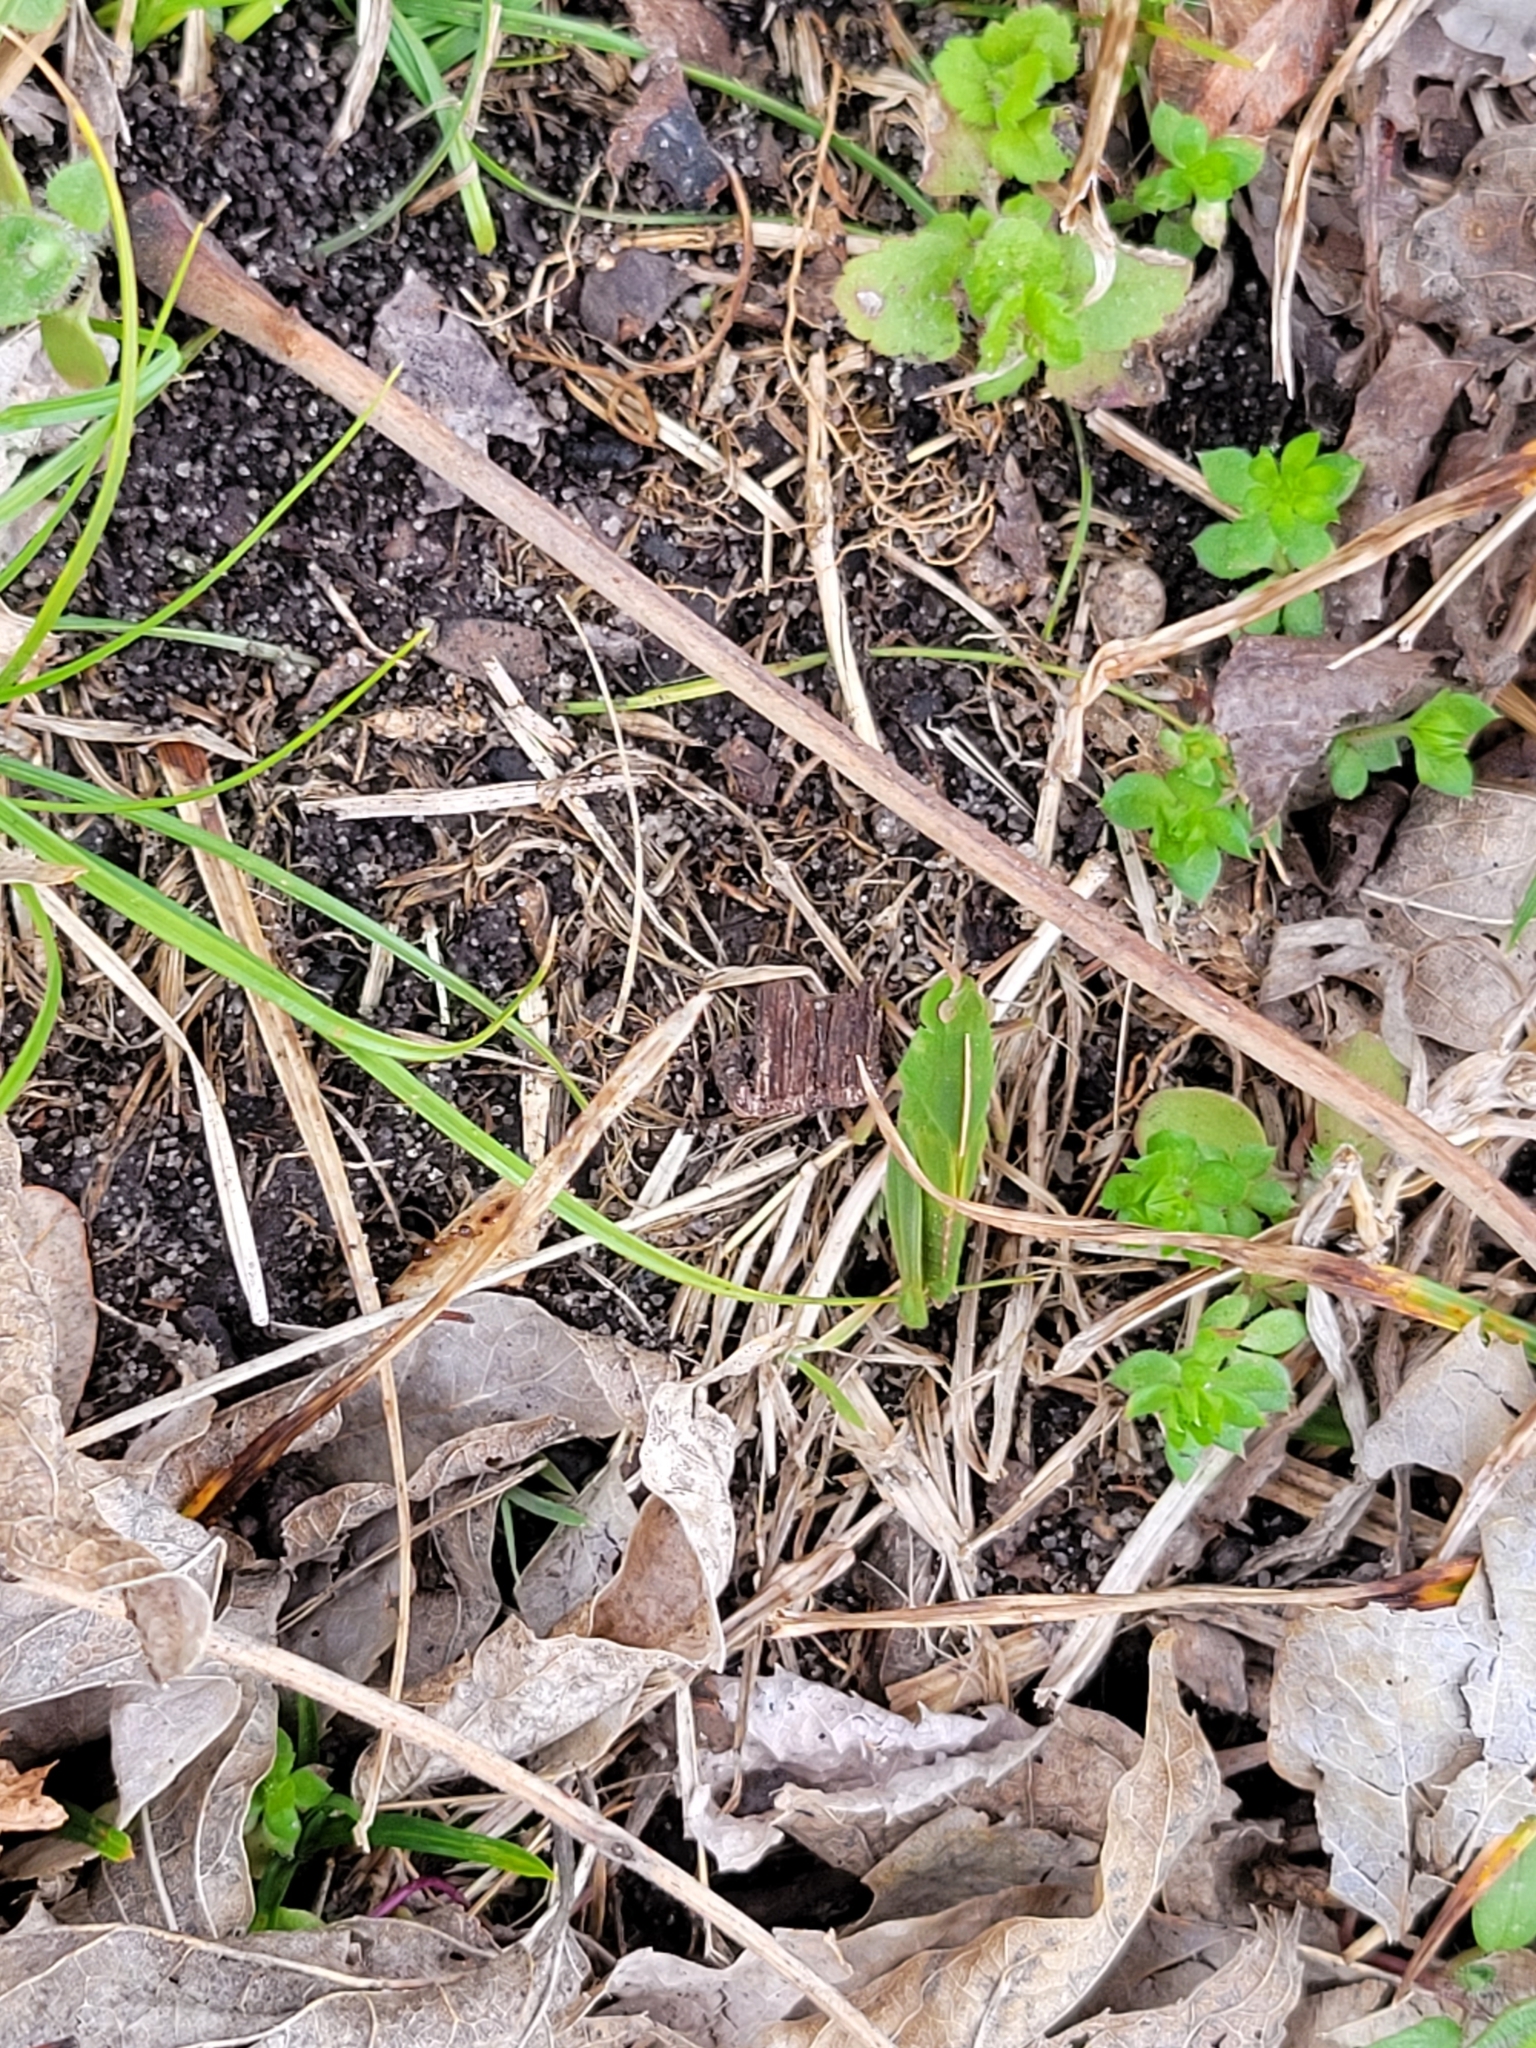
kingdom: Animalia
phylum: Arthropoda
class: Insecta
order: Orthoptera
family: Acrididae
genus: Chortophaga
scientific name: Chortophaga viridifasciata
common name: Green-striped grasshopper
